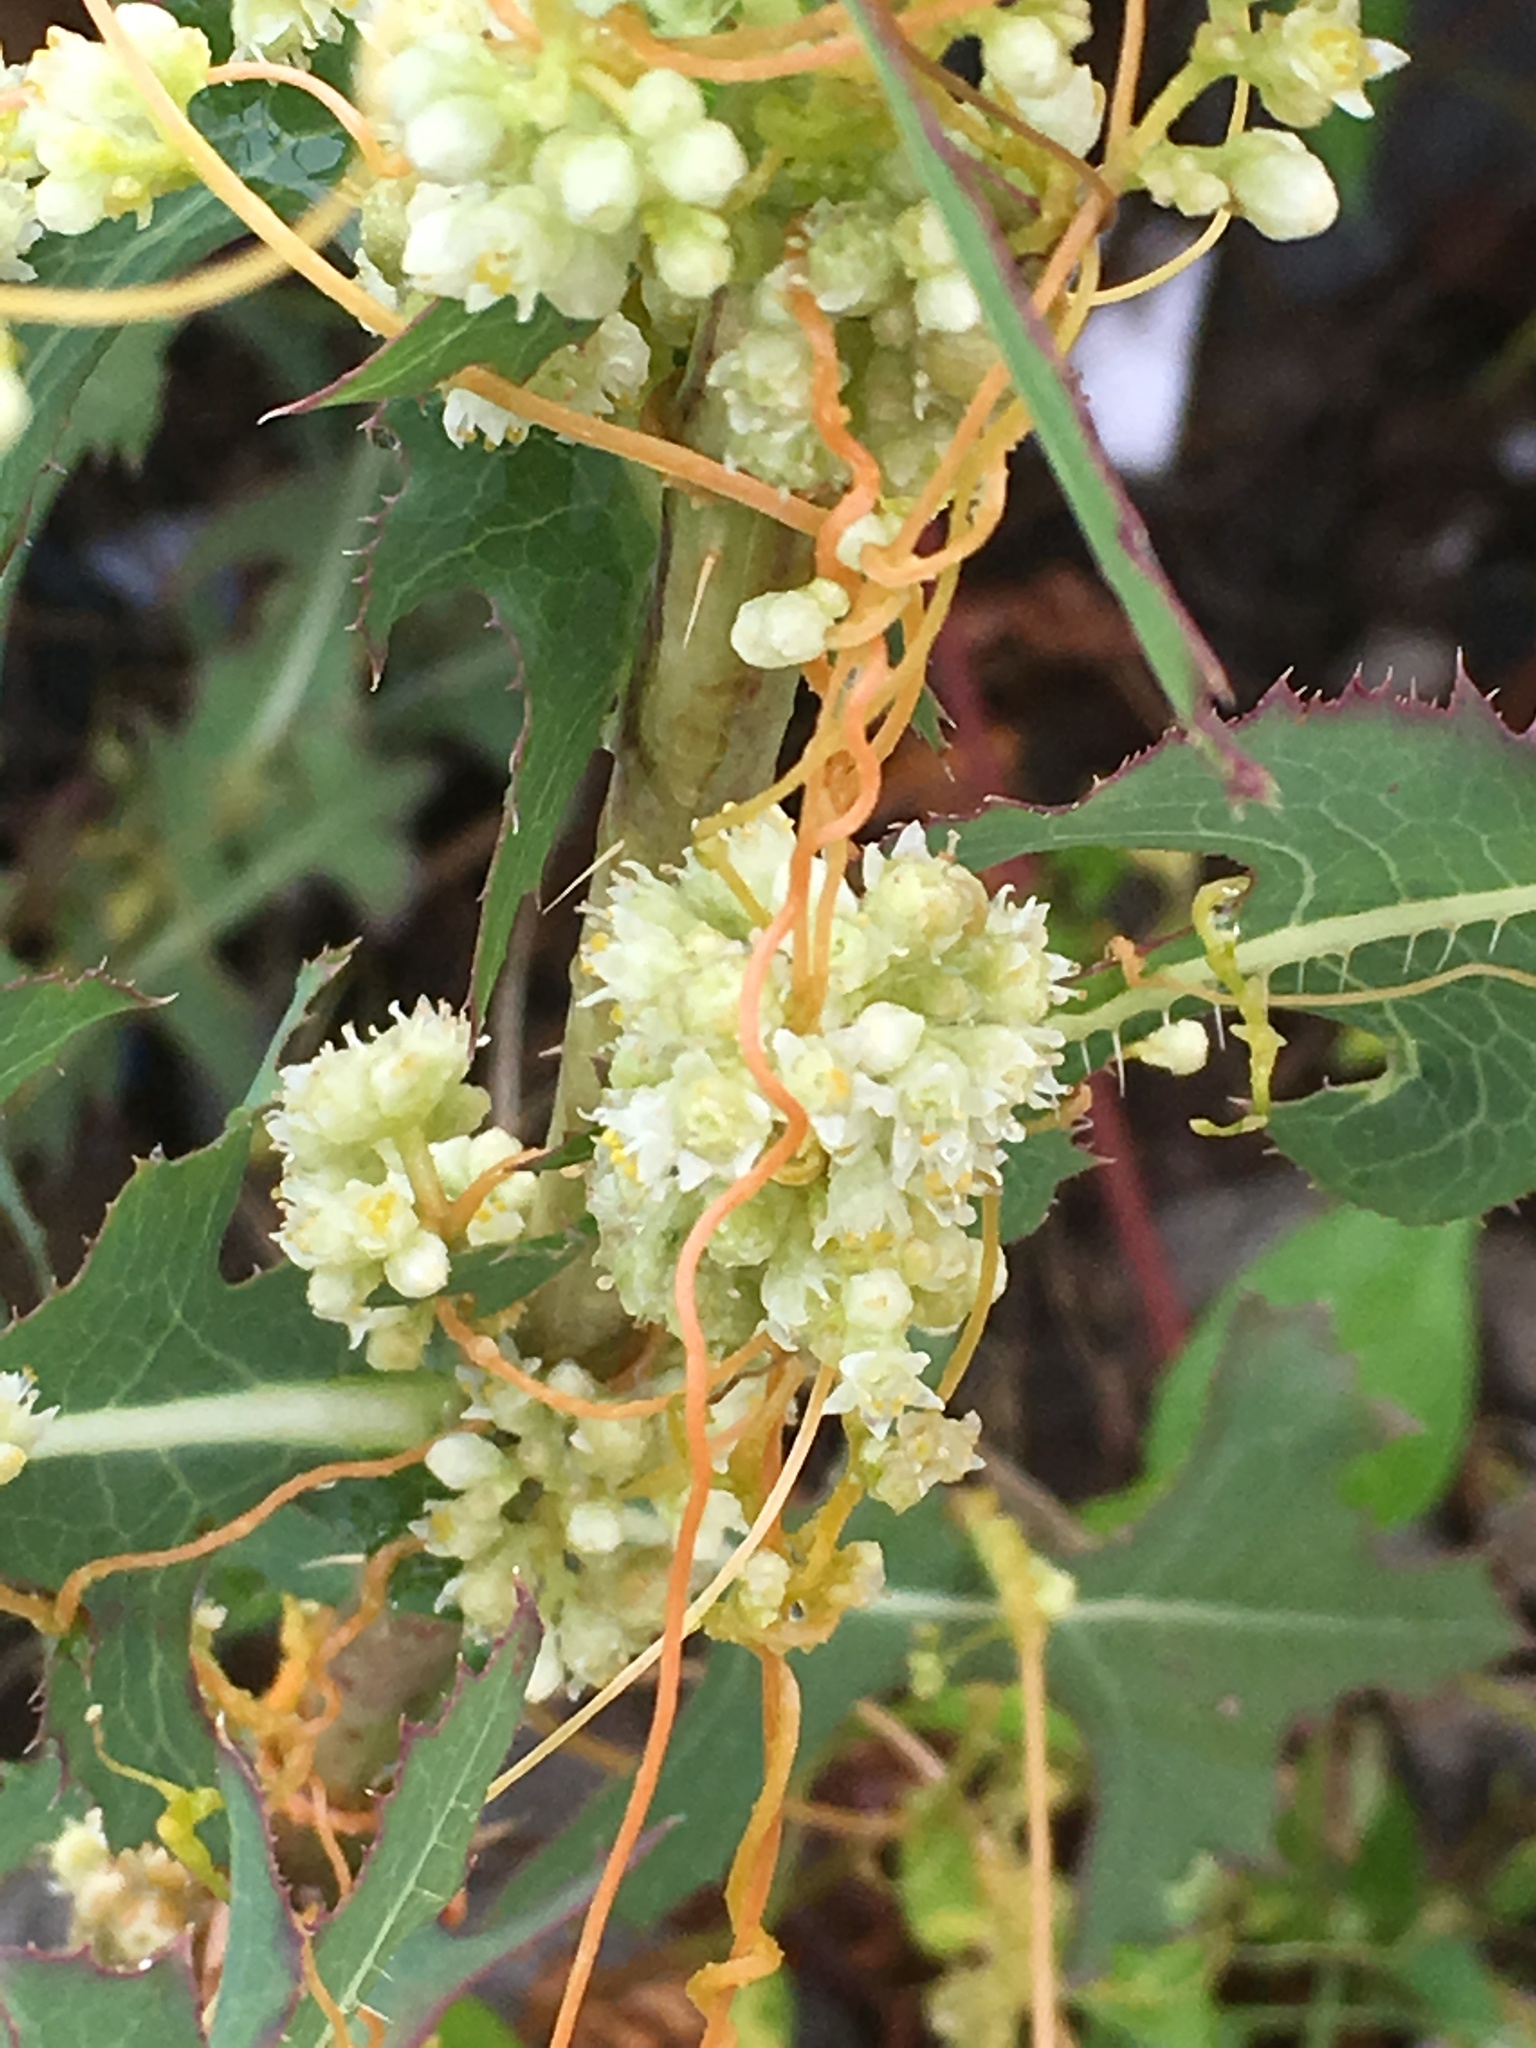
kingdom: Plantae
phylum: Tracheophyta
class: Magnoliopsida
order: Solanales
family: Convolvulaceae
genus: Cuscuta
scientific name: Cuscuta pentagona
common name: Fiveangled dodder
